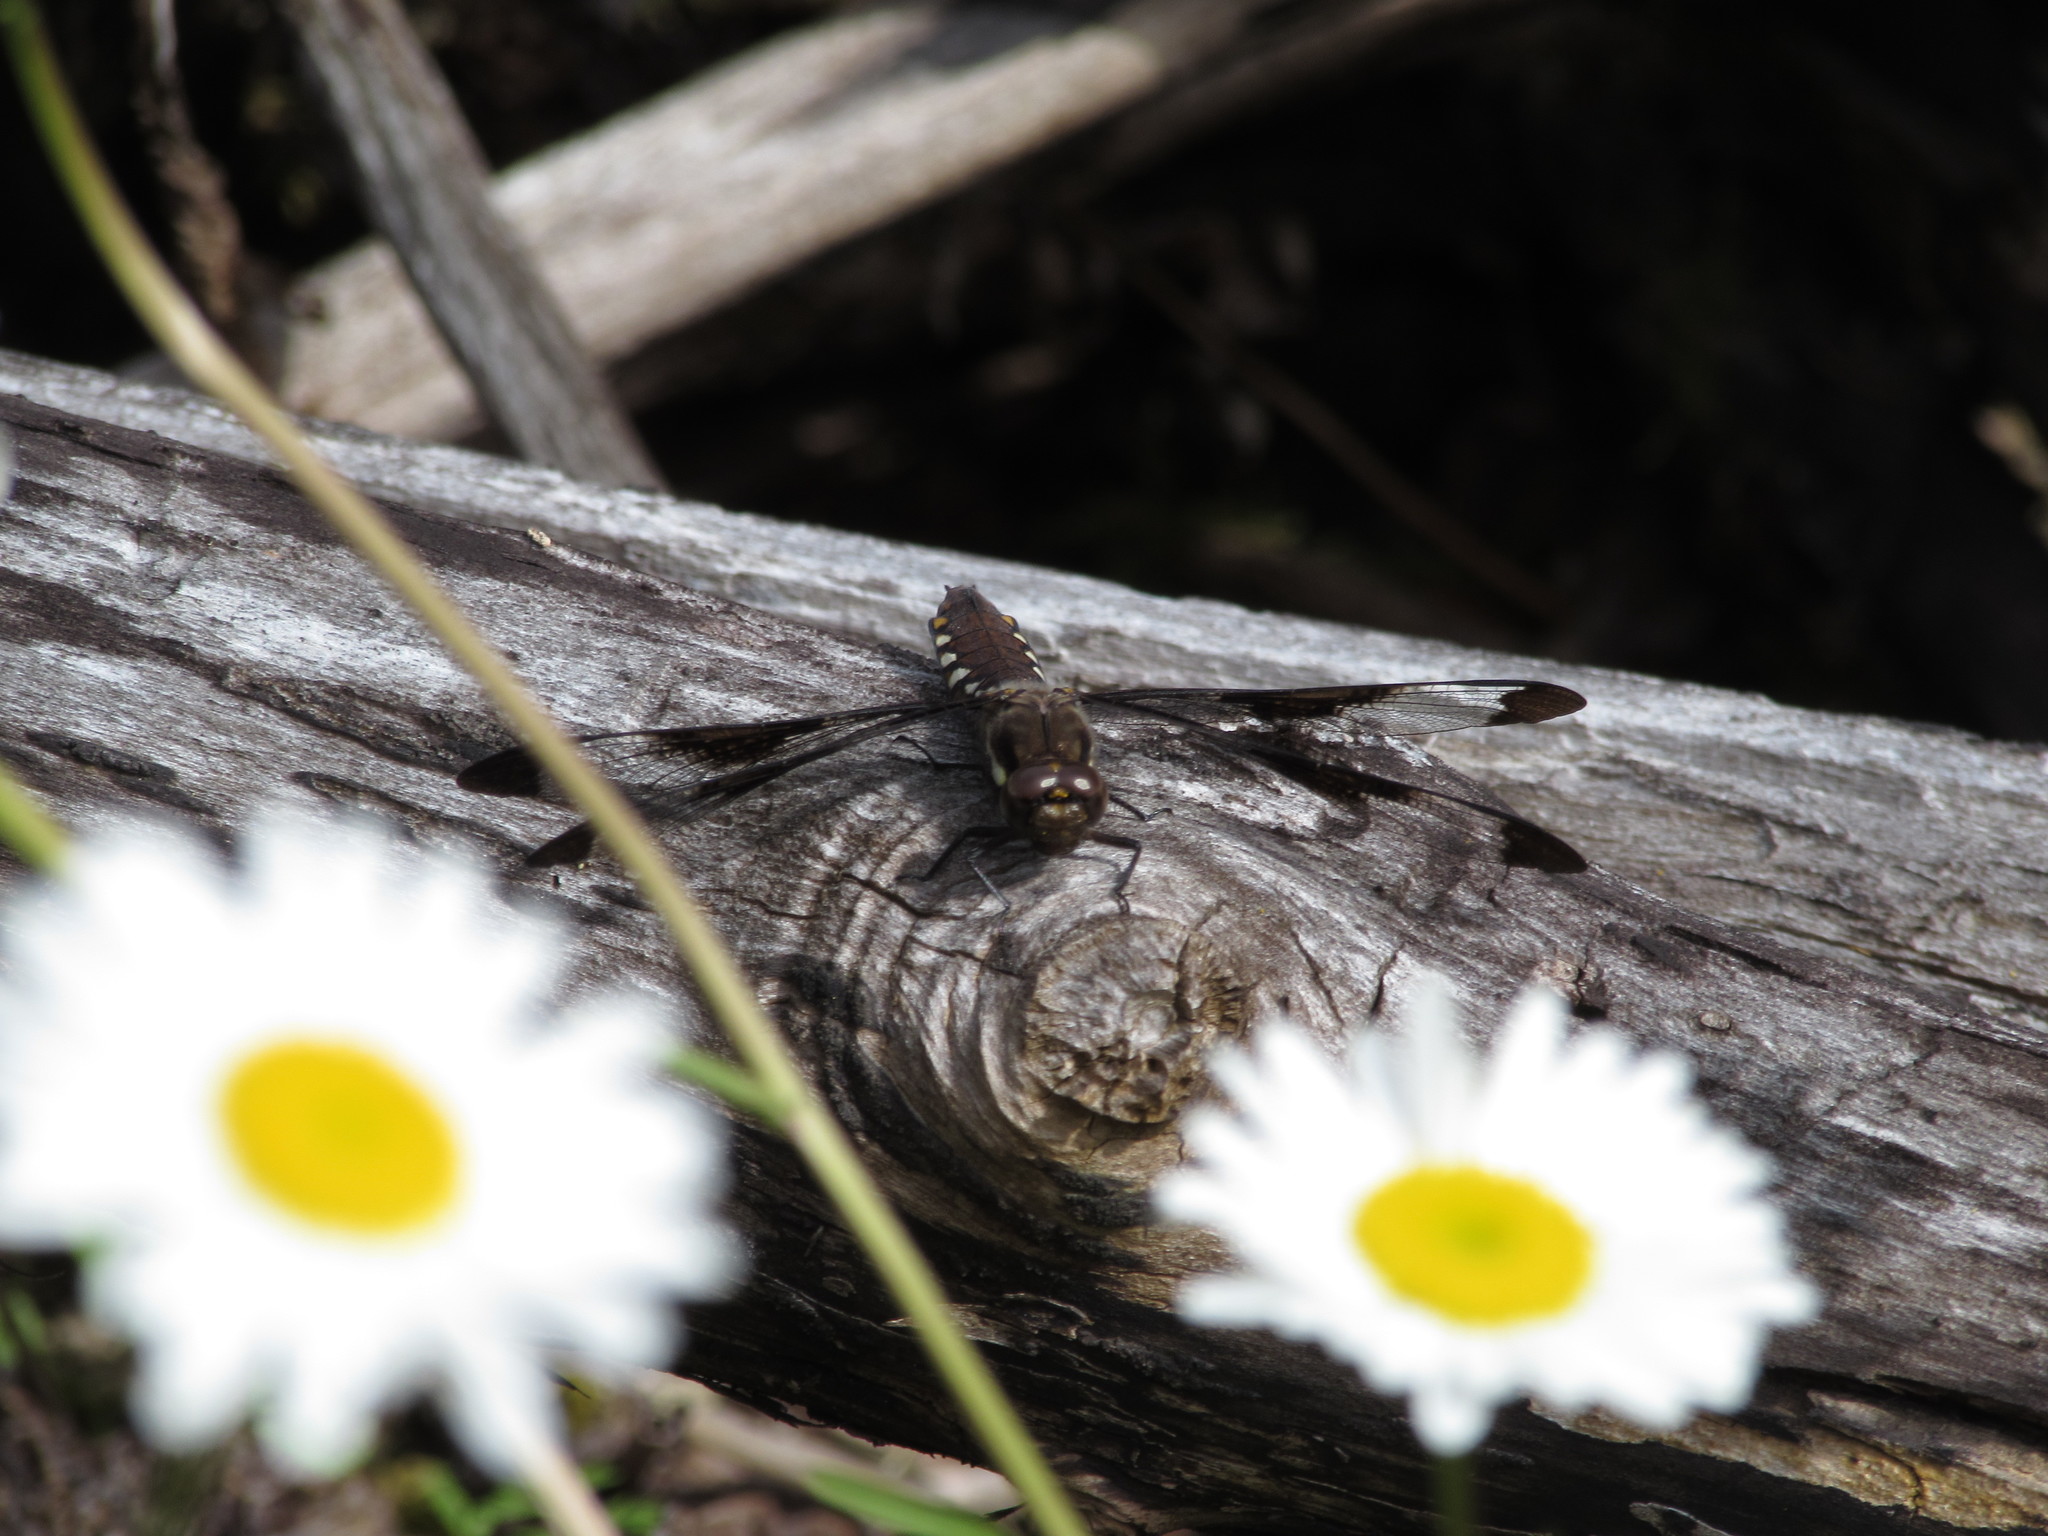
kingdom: Animalia
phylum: Arthropoda
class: Insecta
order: Odonata
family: Libellulidae
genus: Plathemis
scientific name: Plathemis lydia
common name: Common whitetail
